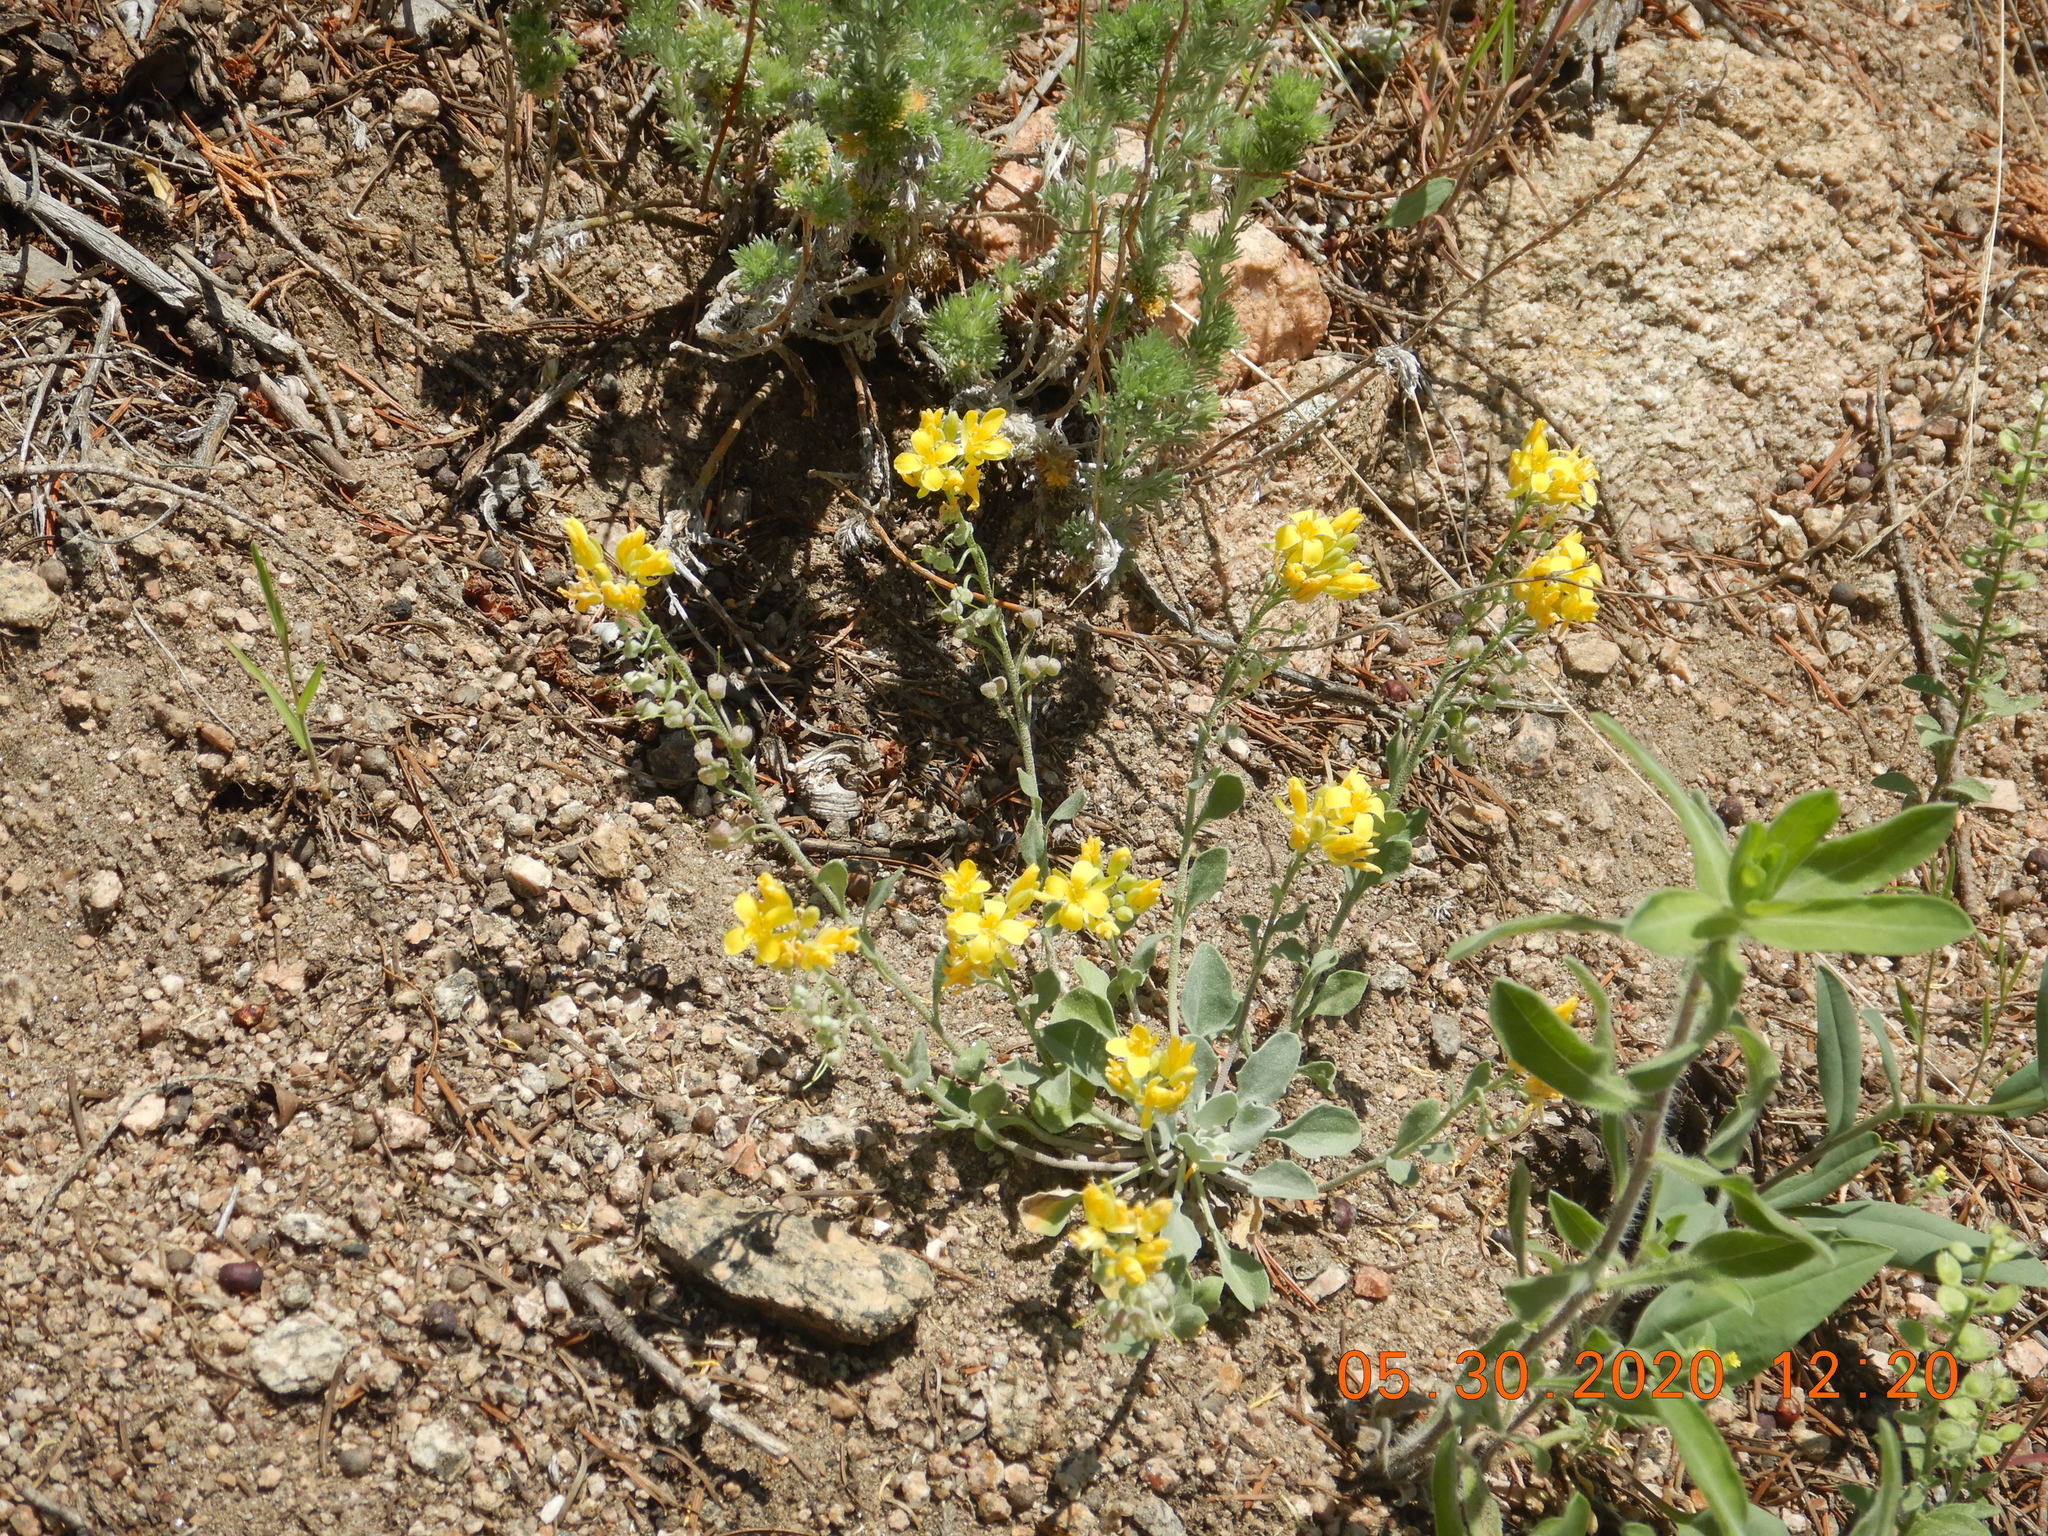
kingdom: Plantae
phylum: Tracheophyta
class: Magnoliopsida
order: Brassicales
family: Brassicaceae
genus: Physaria
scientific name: Physaria vitulifera
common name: Roundtrip twinpod
